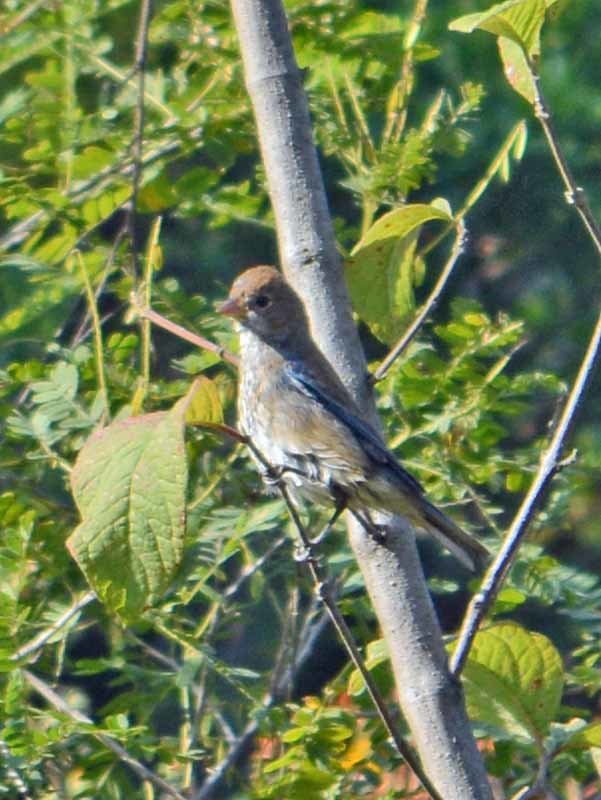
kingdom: Animalia
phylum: Chordata
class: Aves
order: Passeriformes
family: Cardinalidae
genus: Passerina
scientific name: Passerina cyanea
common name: Indigo bunting
